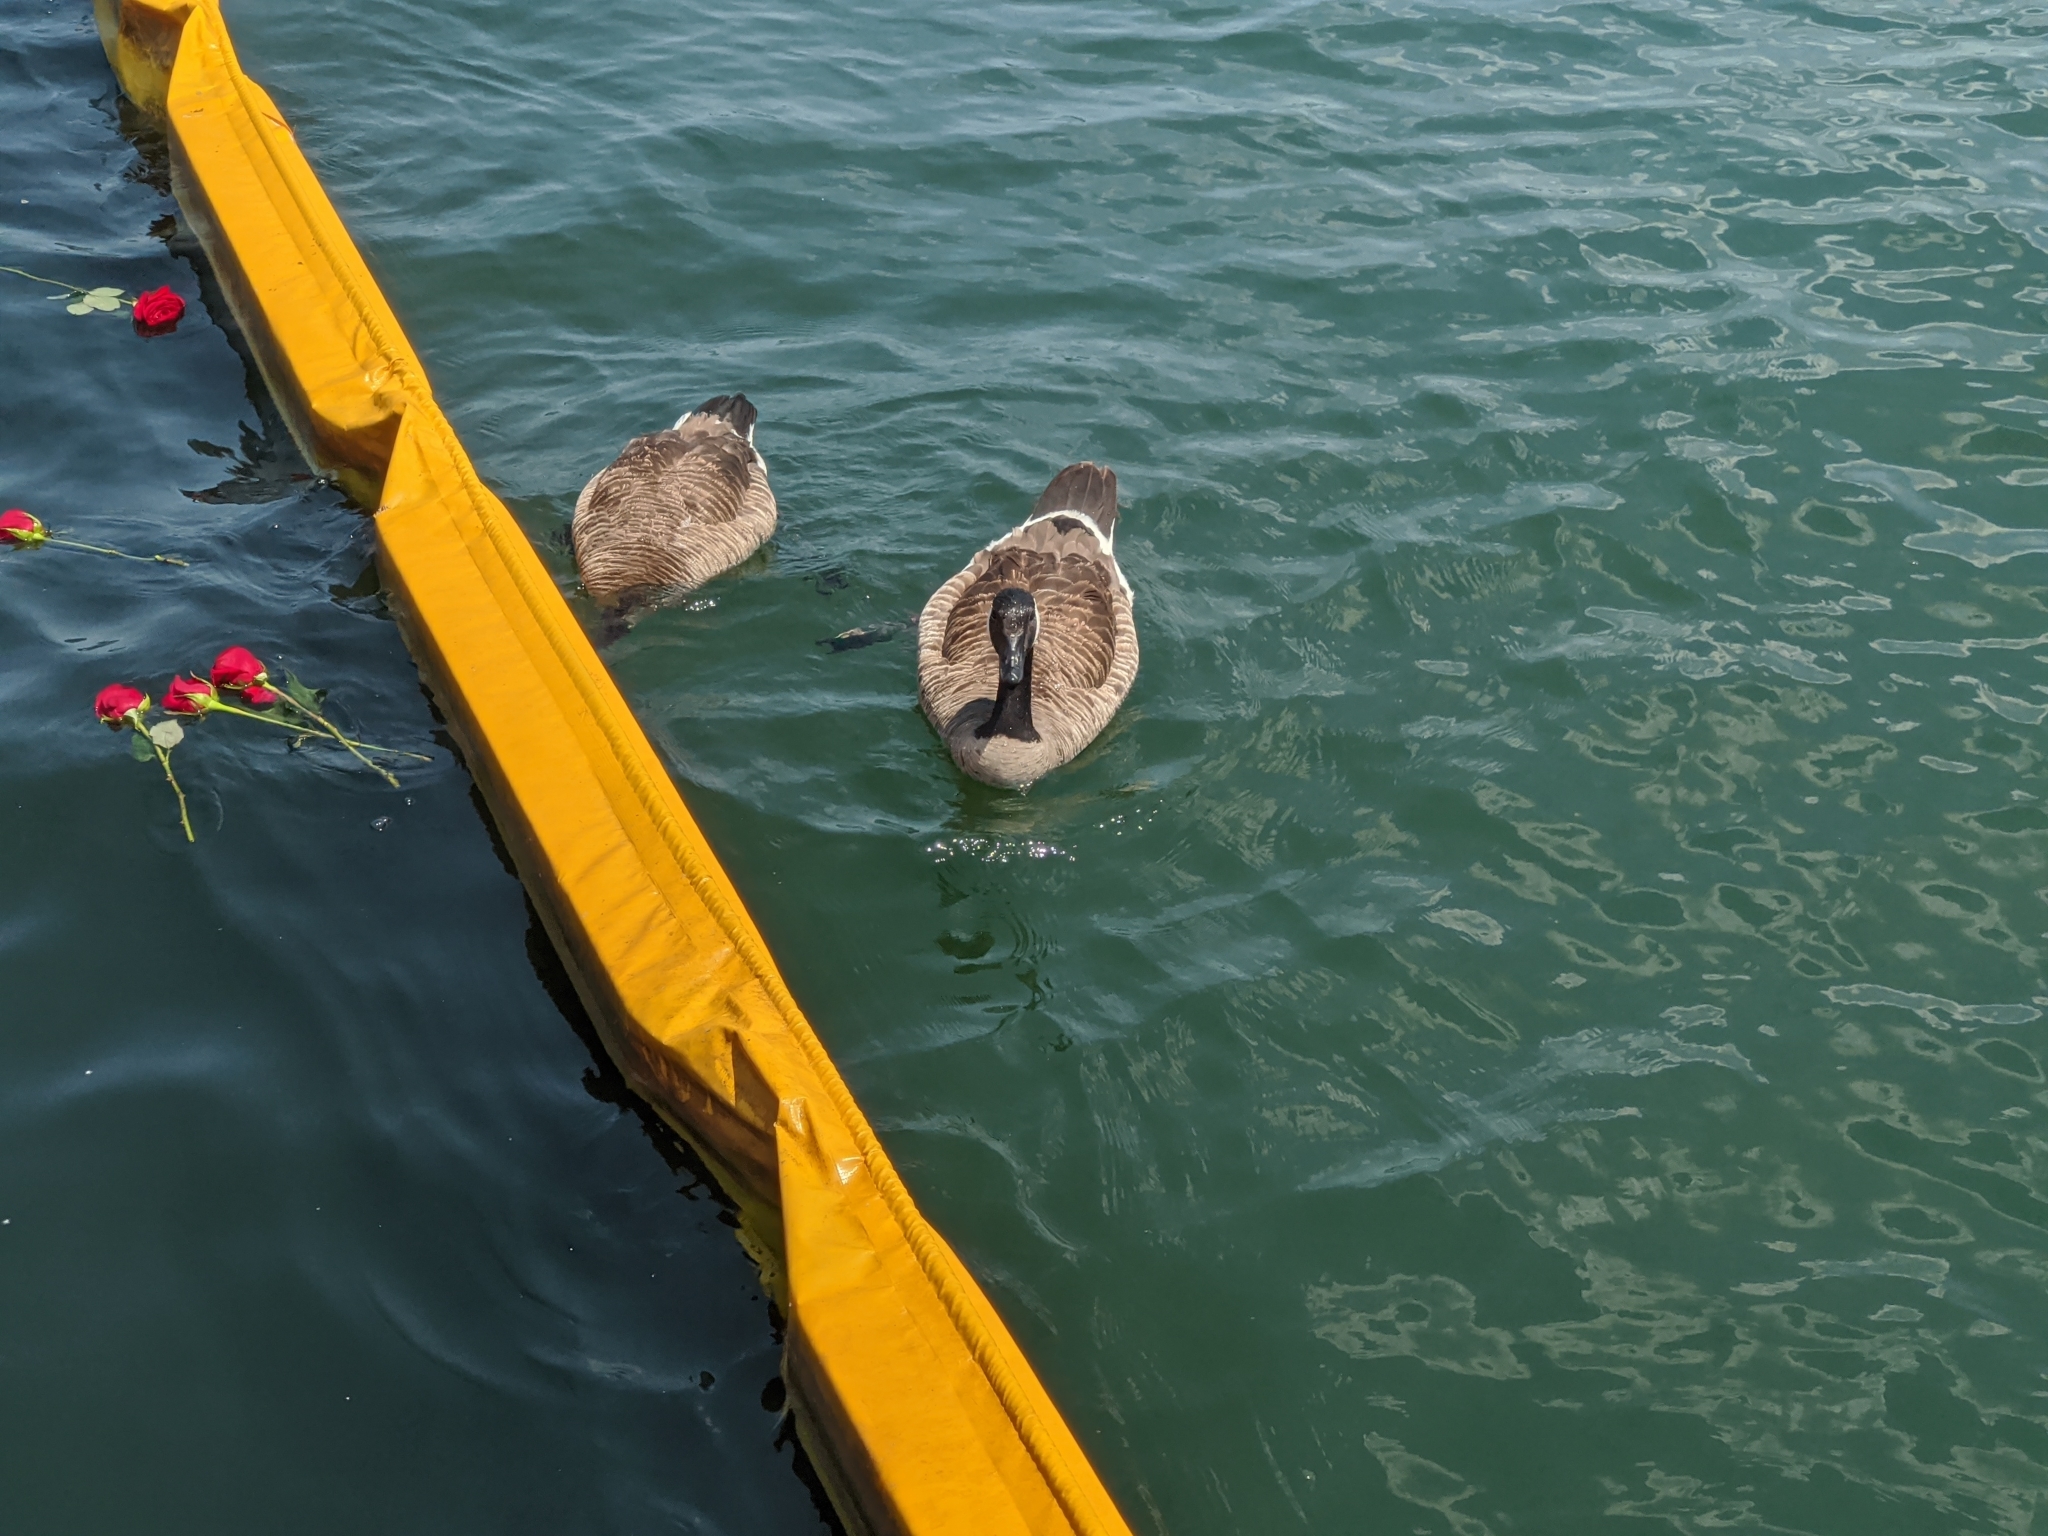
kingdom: Animalia
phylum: Chordata
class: Aves
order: Anseriformes
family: Anatidae
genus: Branta
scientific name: Branta canadensis
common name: Canada goose
